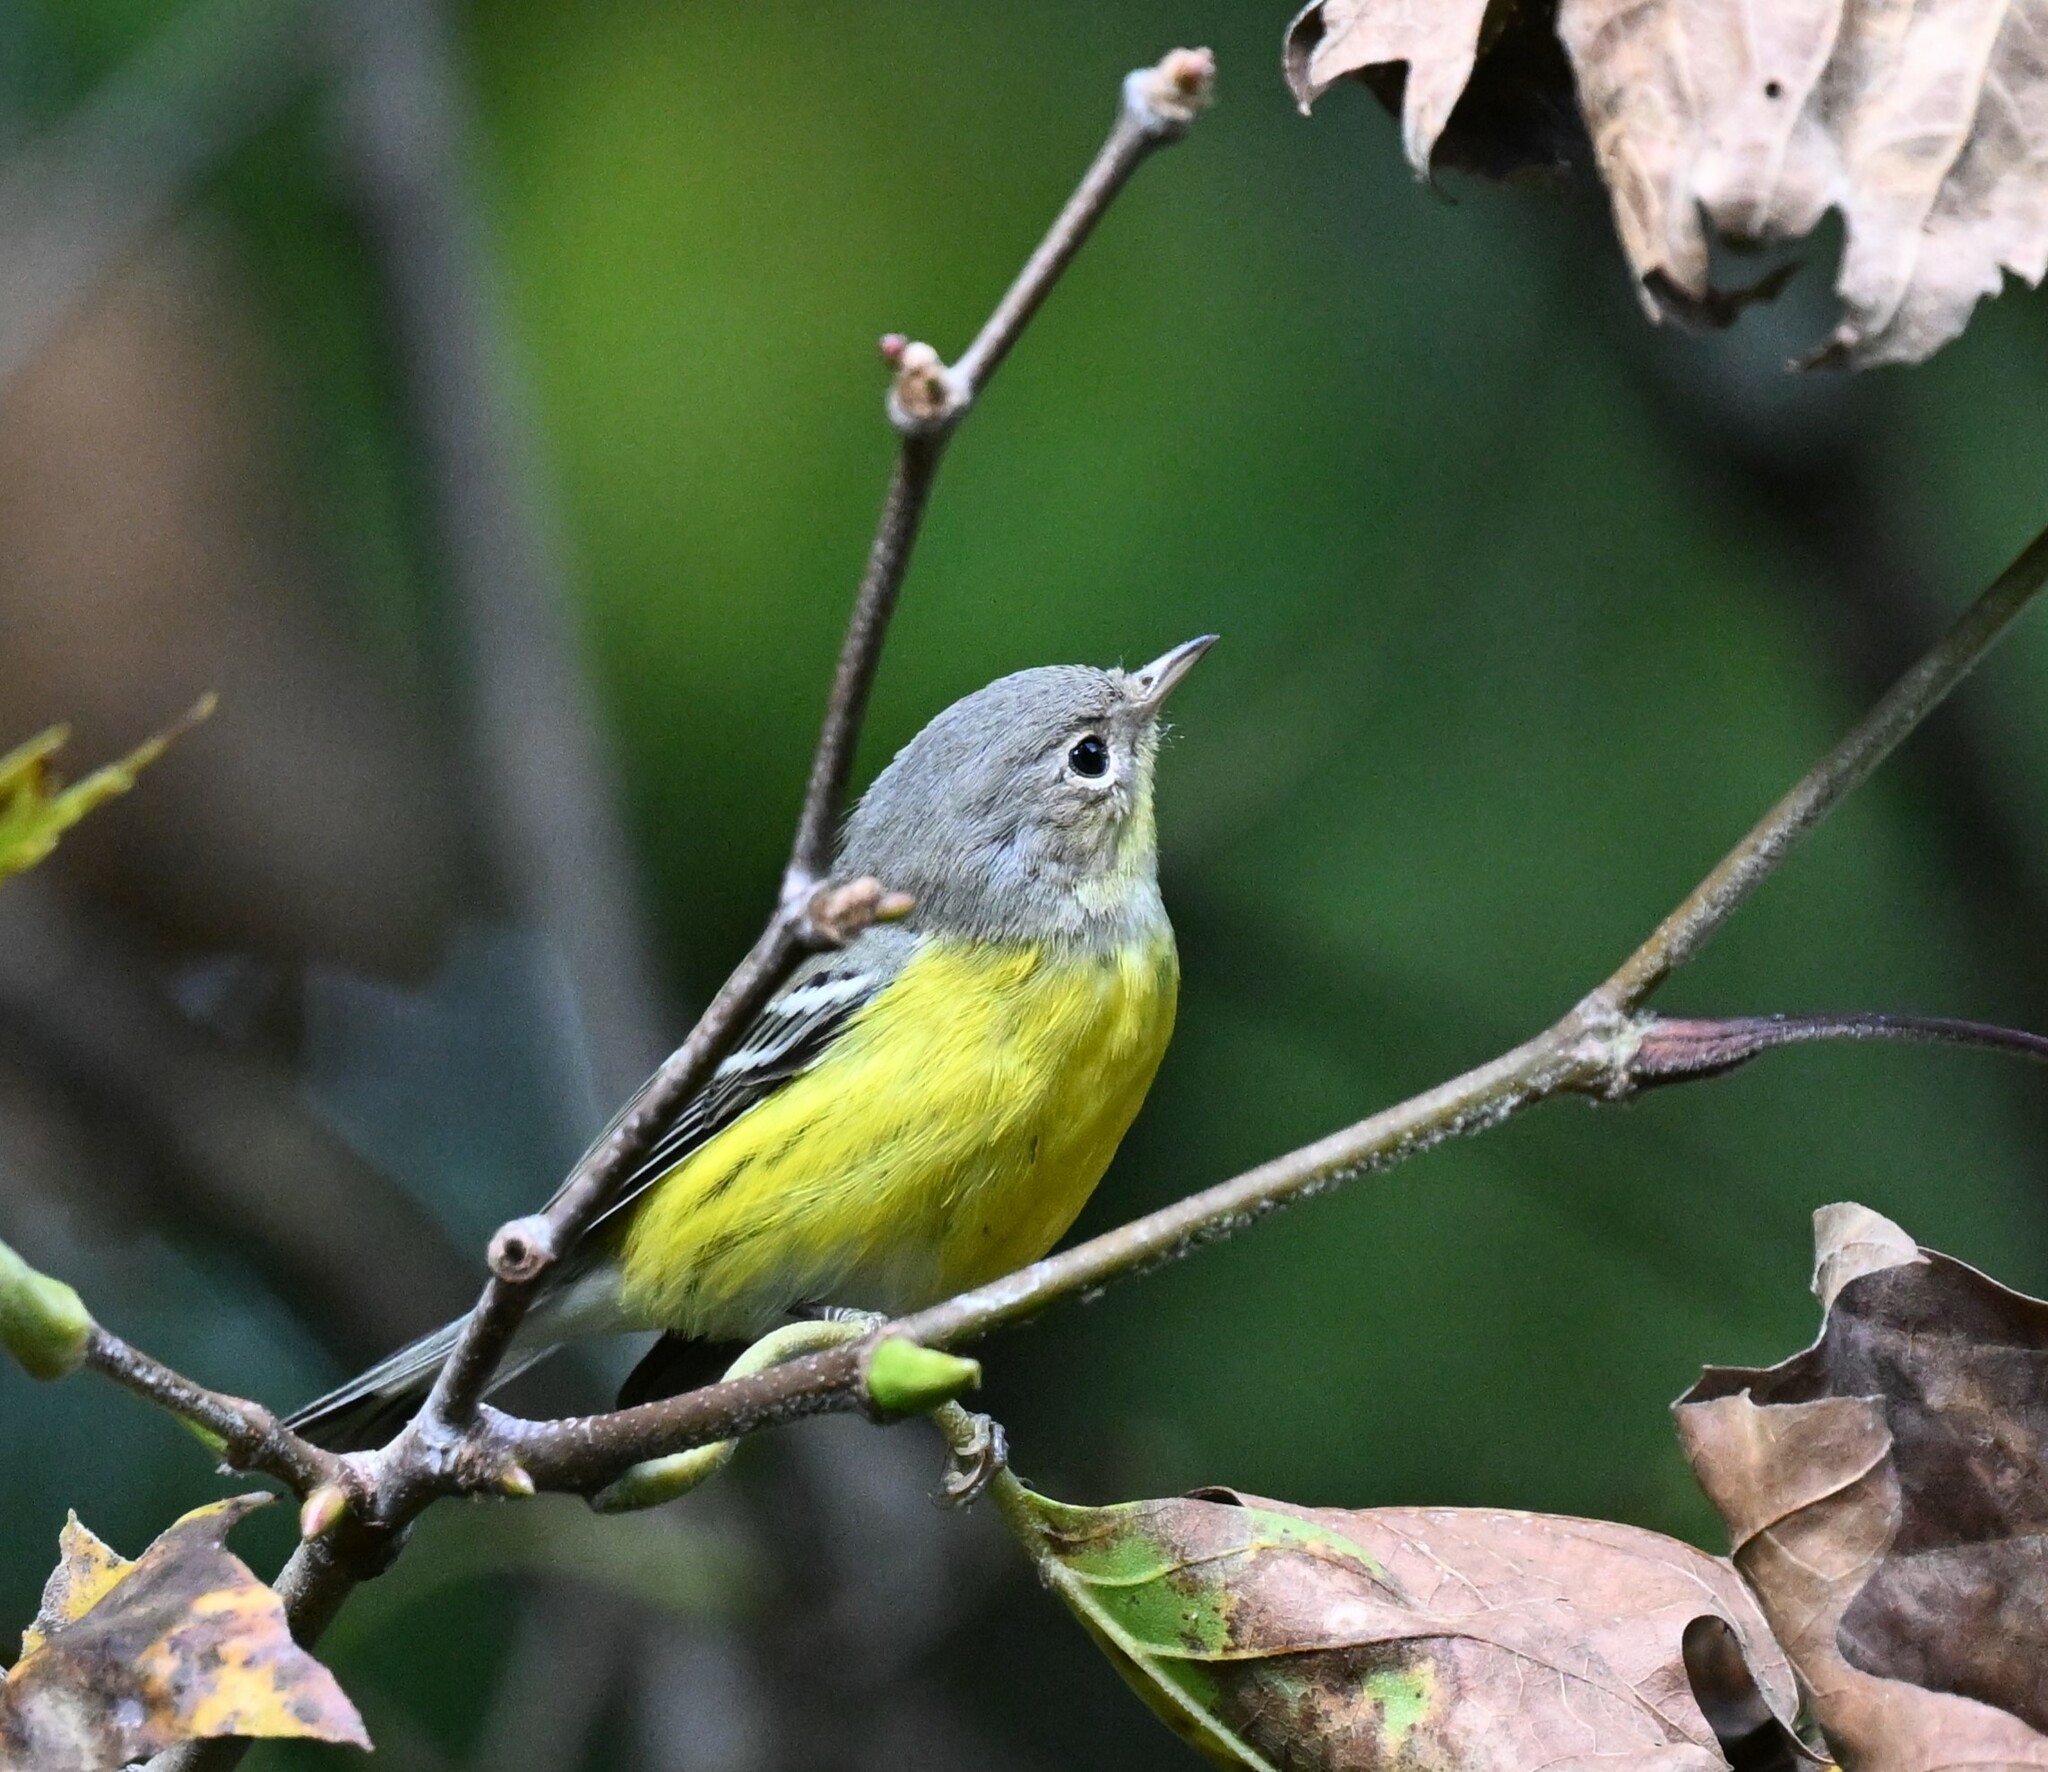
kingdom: Animalia
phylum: Chordata
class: Aves
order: Passeriformes
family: Parulidae
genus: Setophaga
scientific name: Setophaga magnolia
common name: Magnolia warbler
